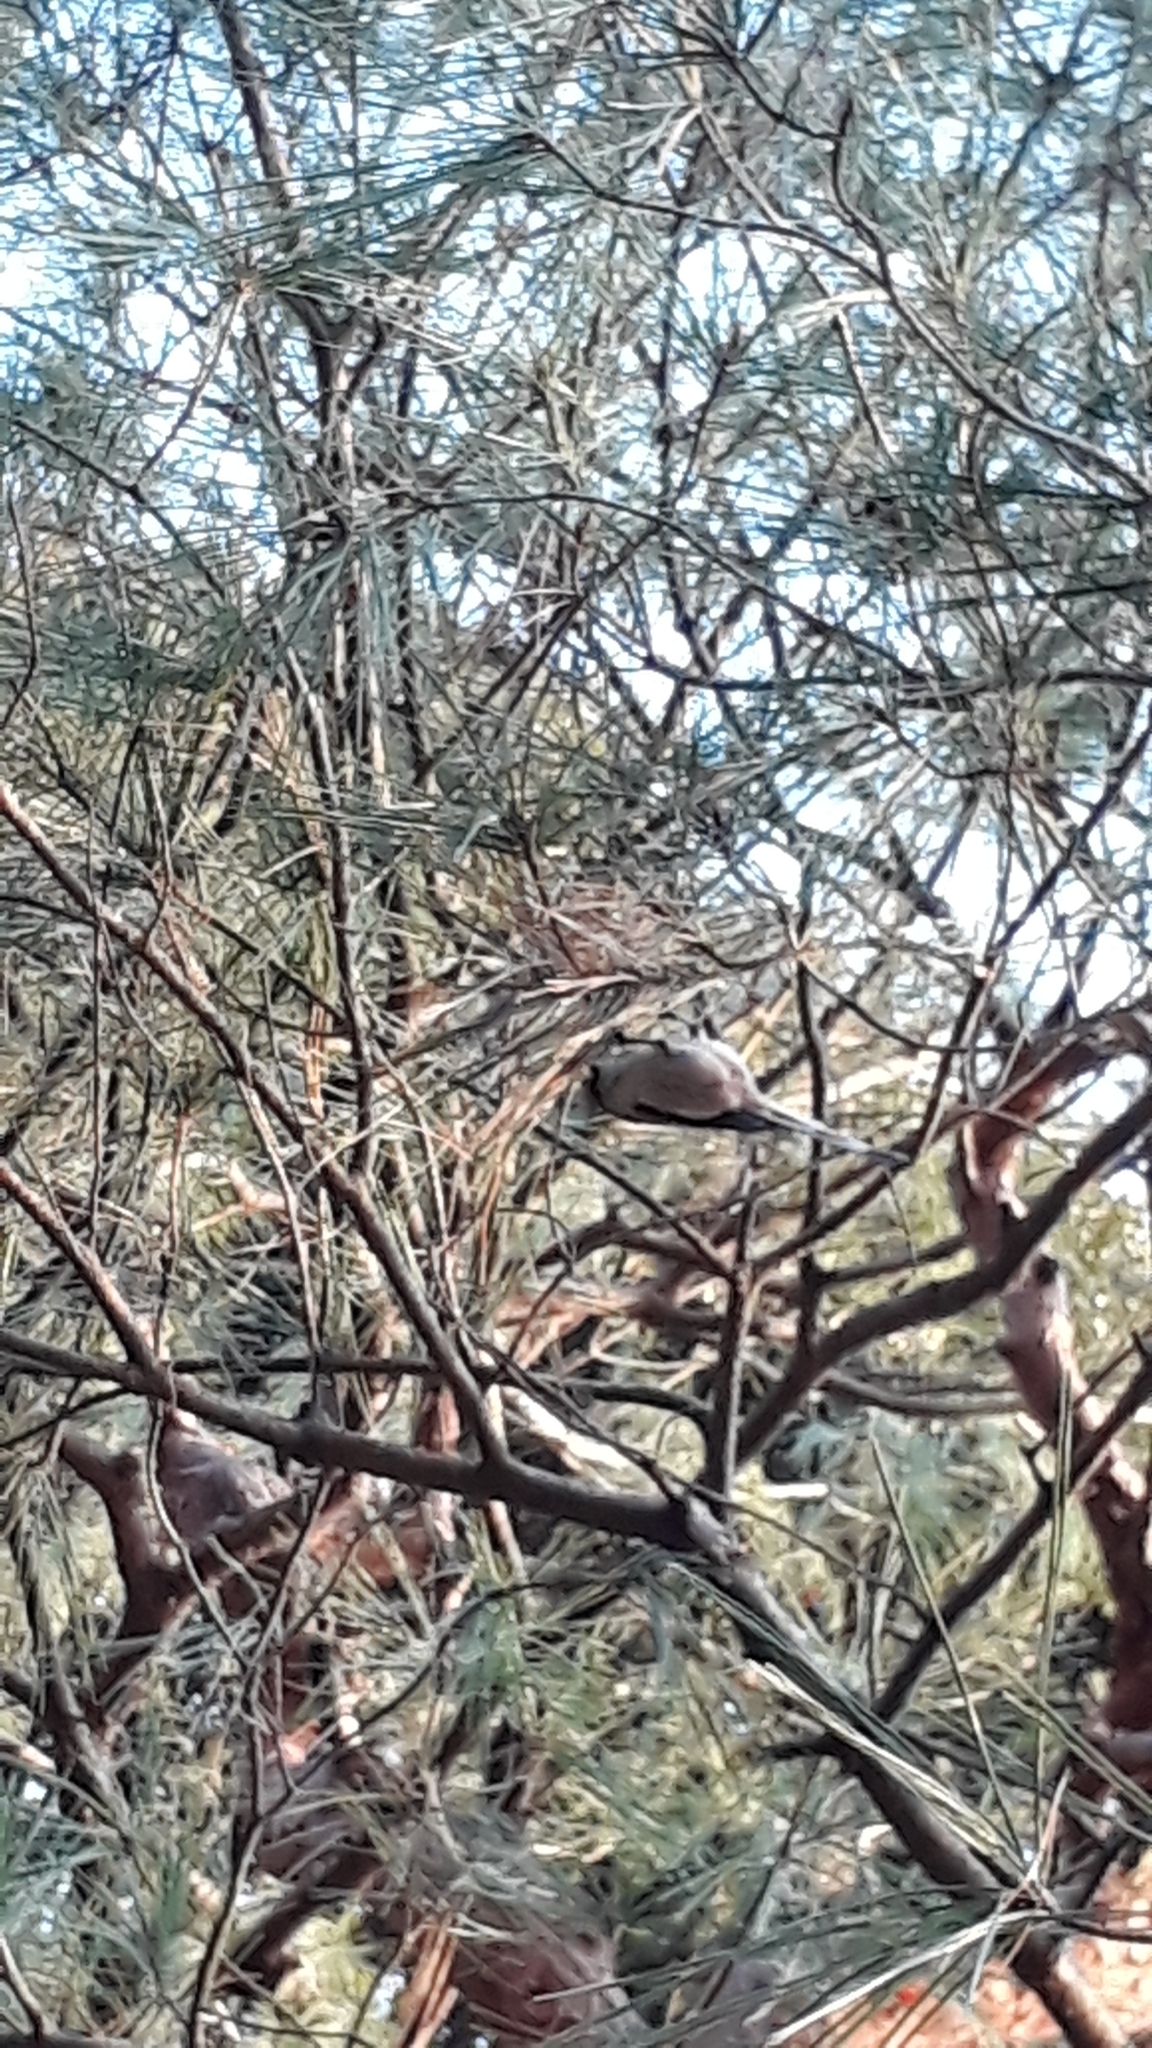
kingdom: Animalia
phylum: Chordata
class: Aves
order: Passeriformes
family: Aegithalidae
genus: Aegithalos
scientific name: Aegithalos caudatus
